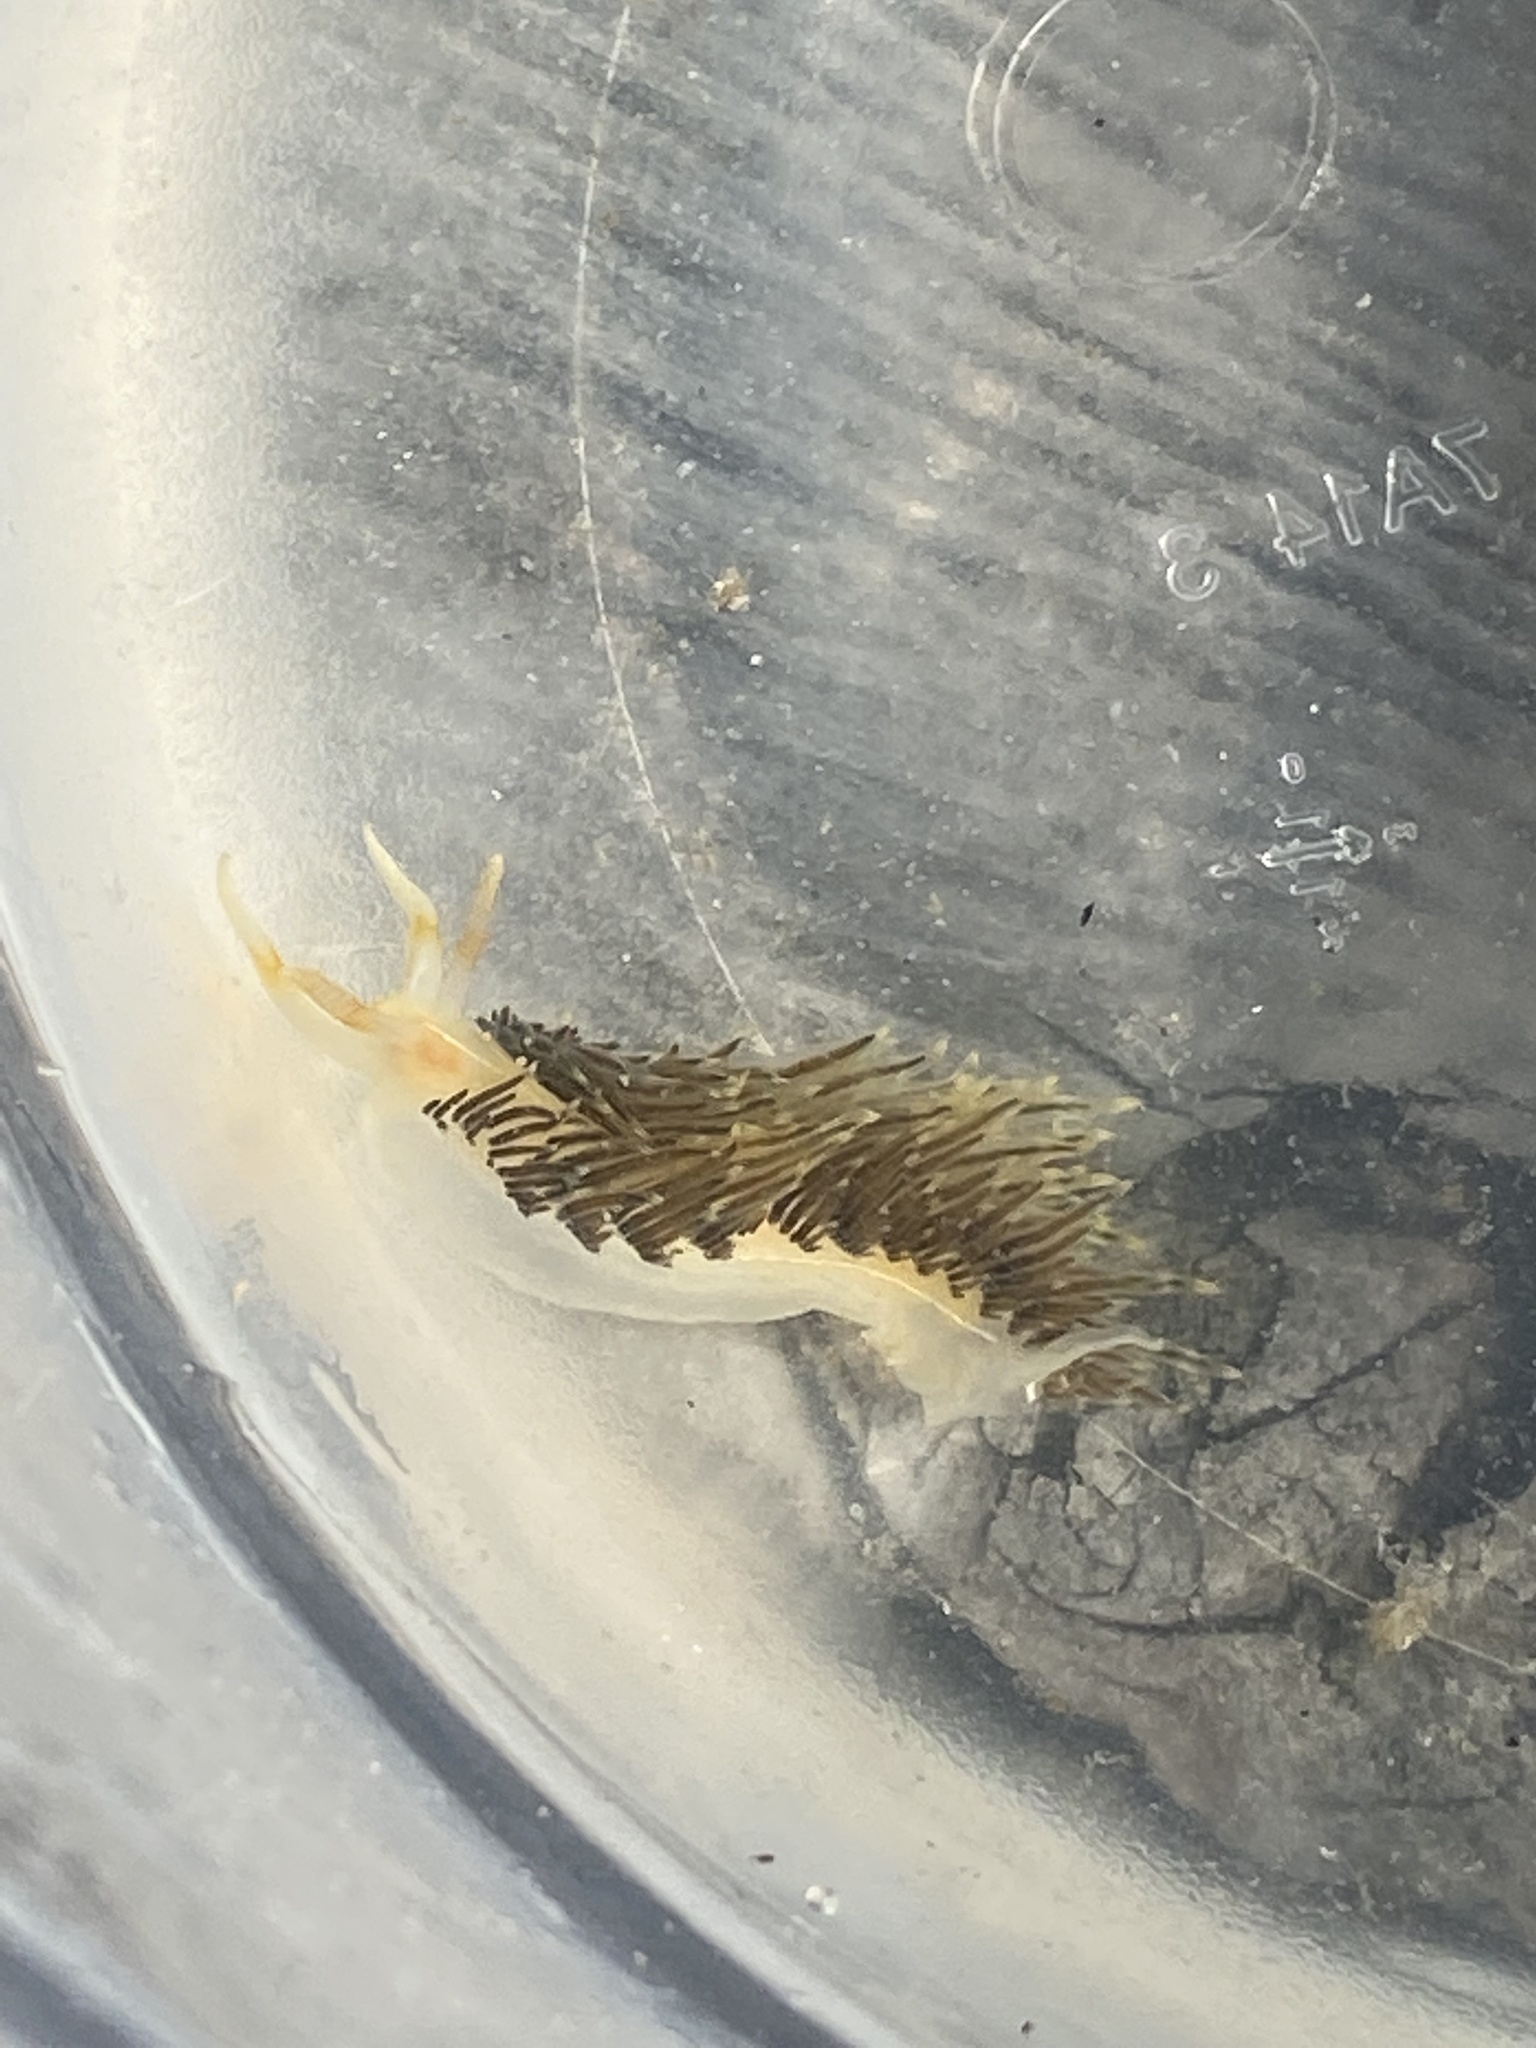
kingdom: Animalia
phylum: Mollusca
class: Gastropoda
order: Nudibranchia
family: Facelinidae
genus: Phidiana
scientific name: Phidiana lynceus
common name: Lynx nudibranch
